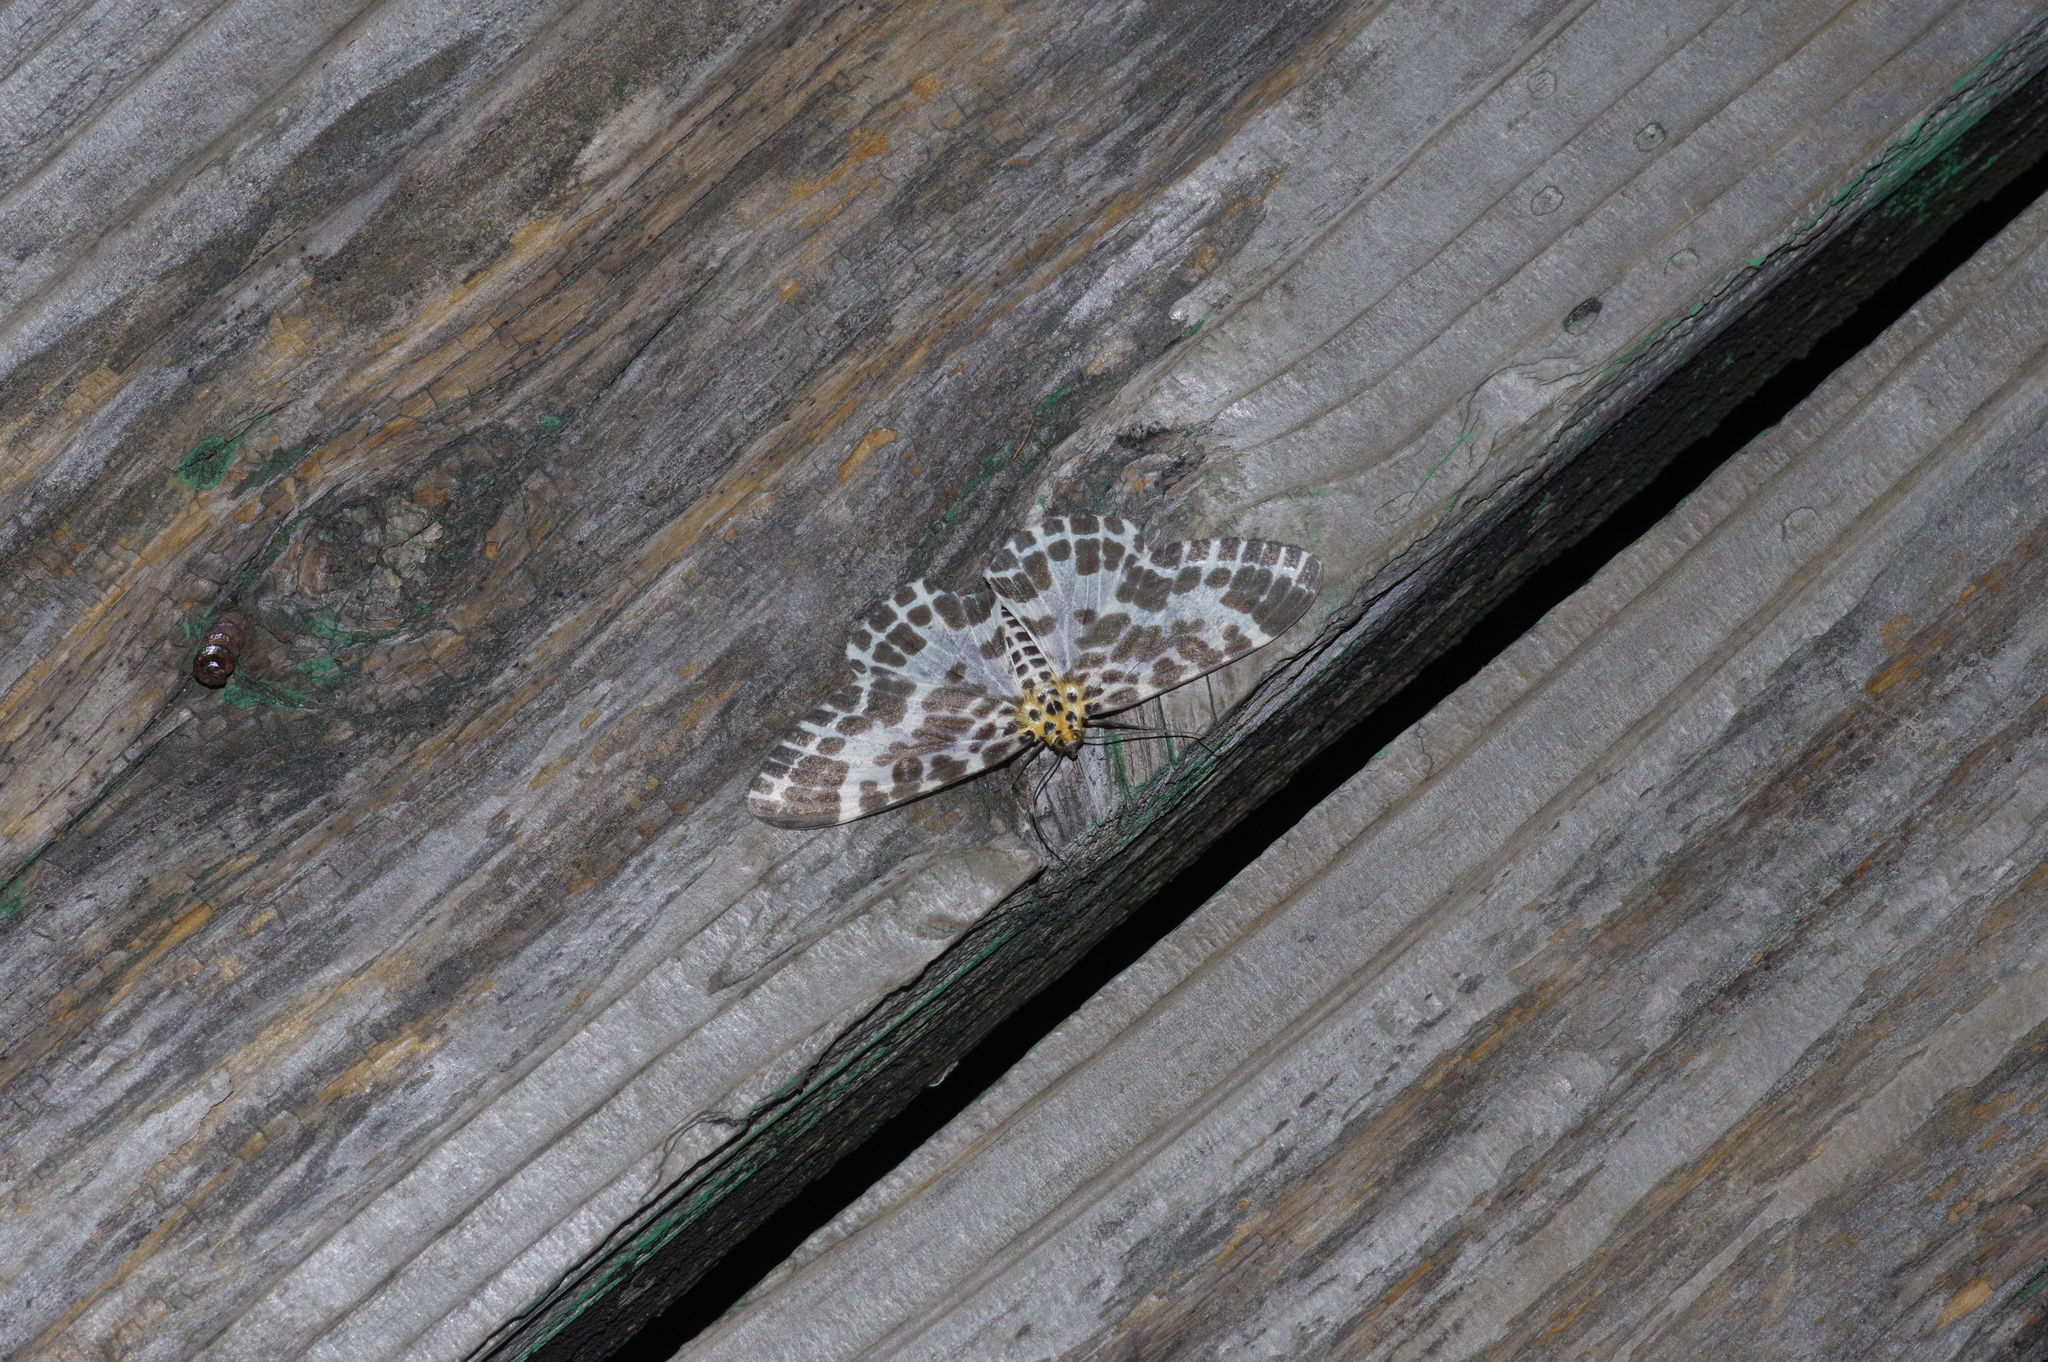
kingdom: Animalia
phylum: Arthropoda
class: Insecta
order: Lepidoptera
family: Geometridae
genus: Pogonopygia
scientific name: Pogonopygia nigralbata
